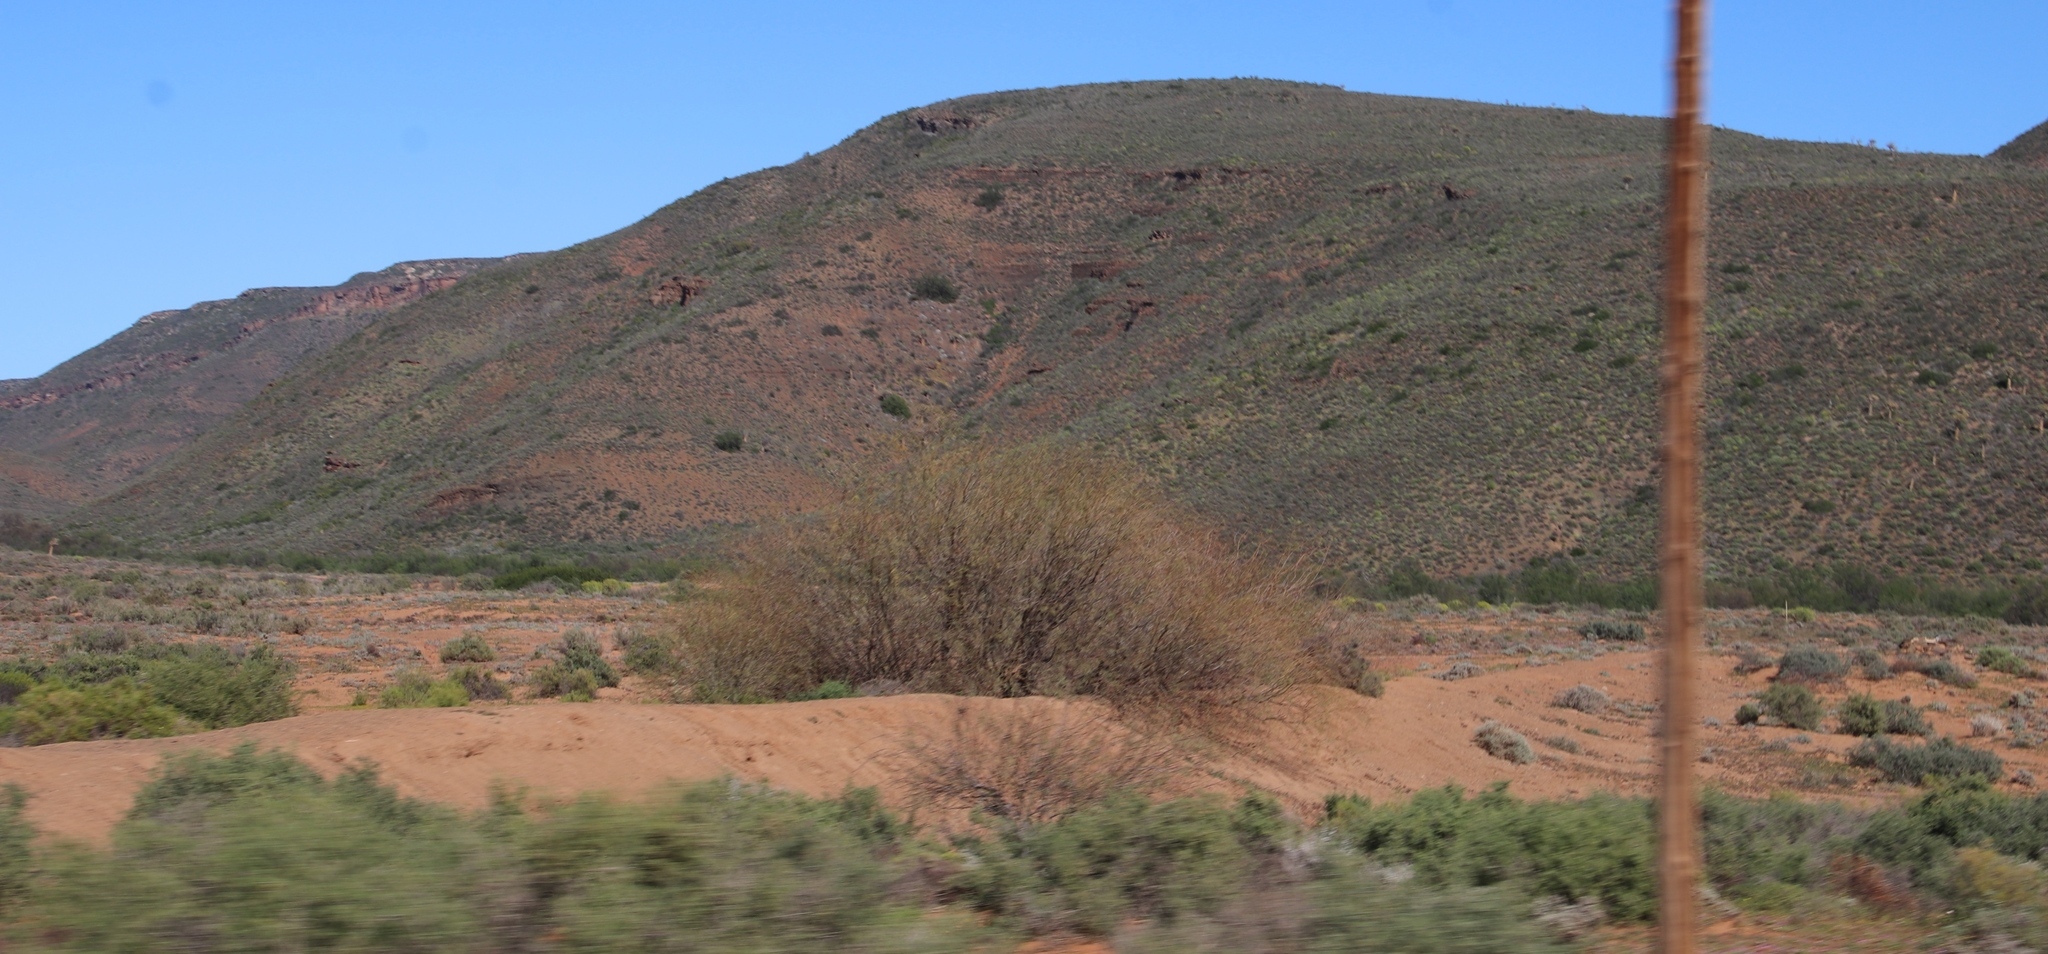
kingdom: Plantae
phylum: Tracheophyta
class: Magnoliopsida
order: Fabales
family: Fabaceae
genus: Prosopis
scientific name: Prosopis pubescens
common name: Screw-bean
